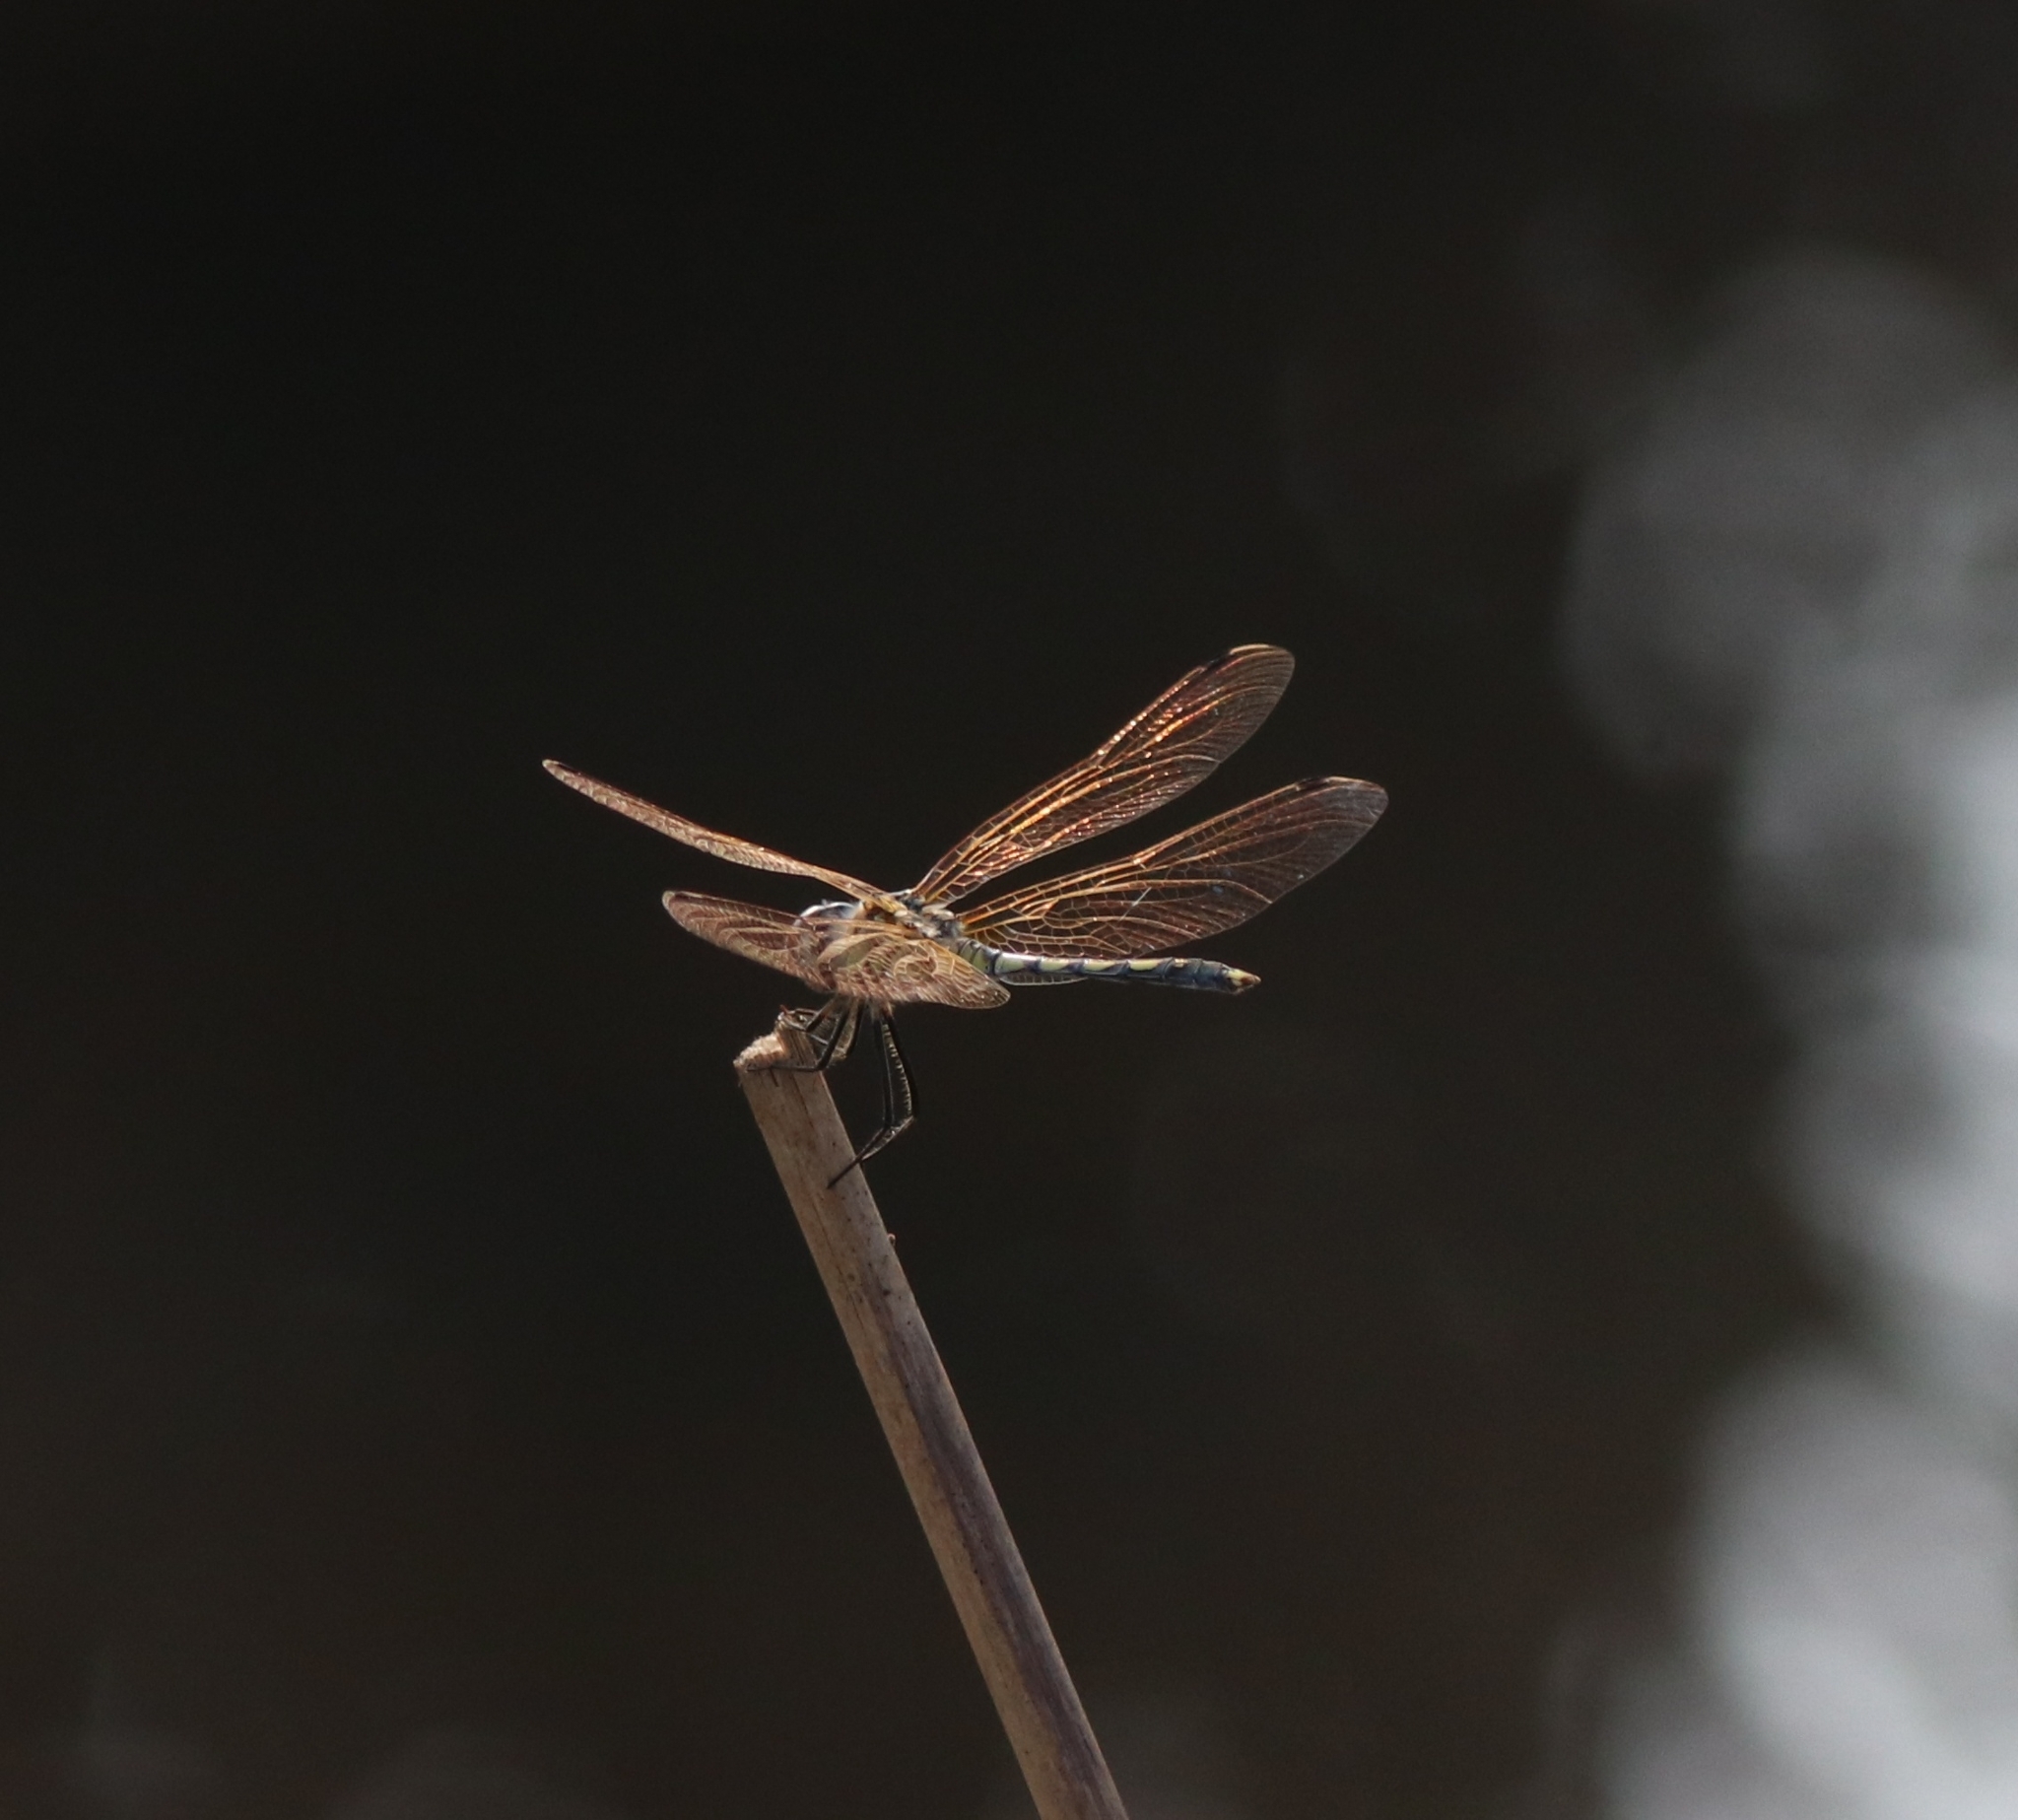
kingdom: Animalia
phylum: Arthropoda
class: Insecta
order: Odonata
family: Libellulidae
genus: Trithemis
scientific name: Trithemis pallidinervis
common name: Dancing dropwing
